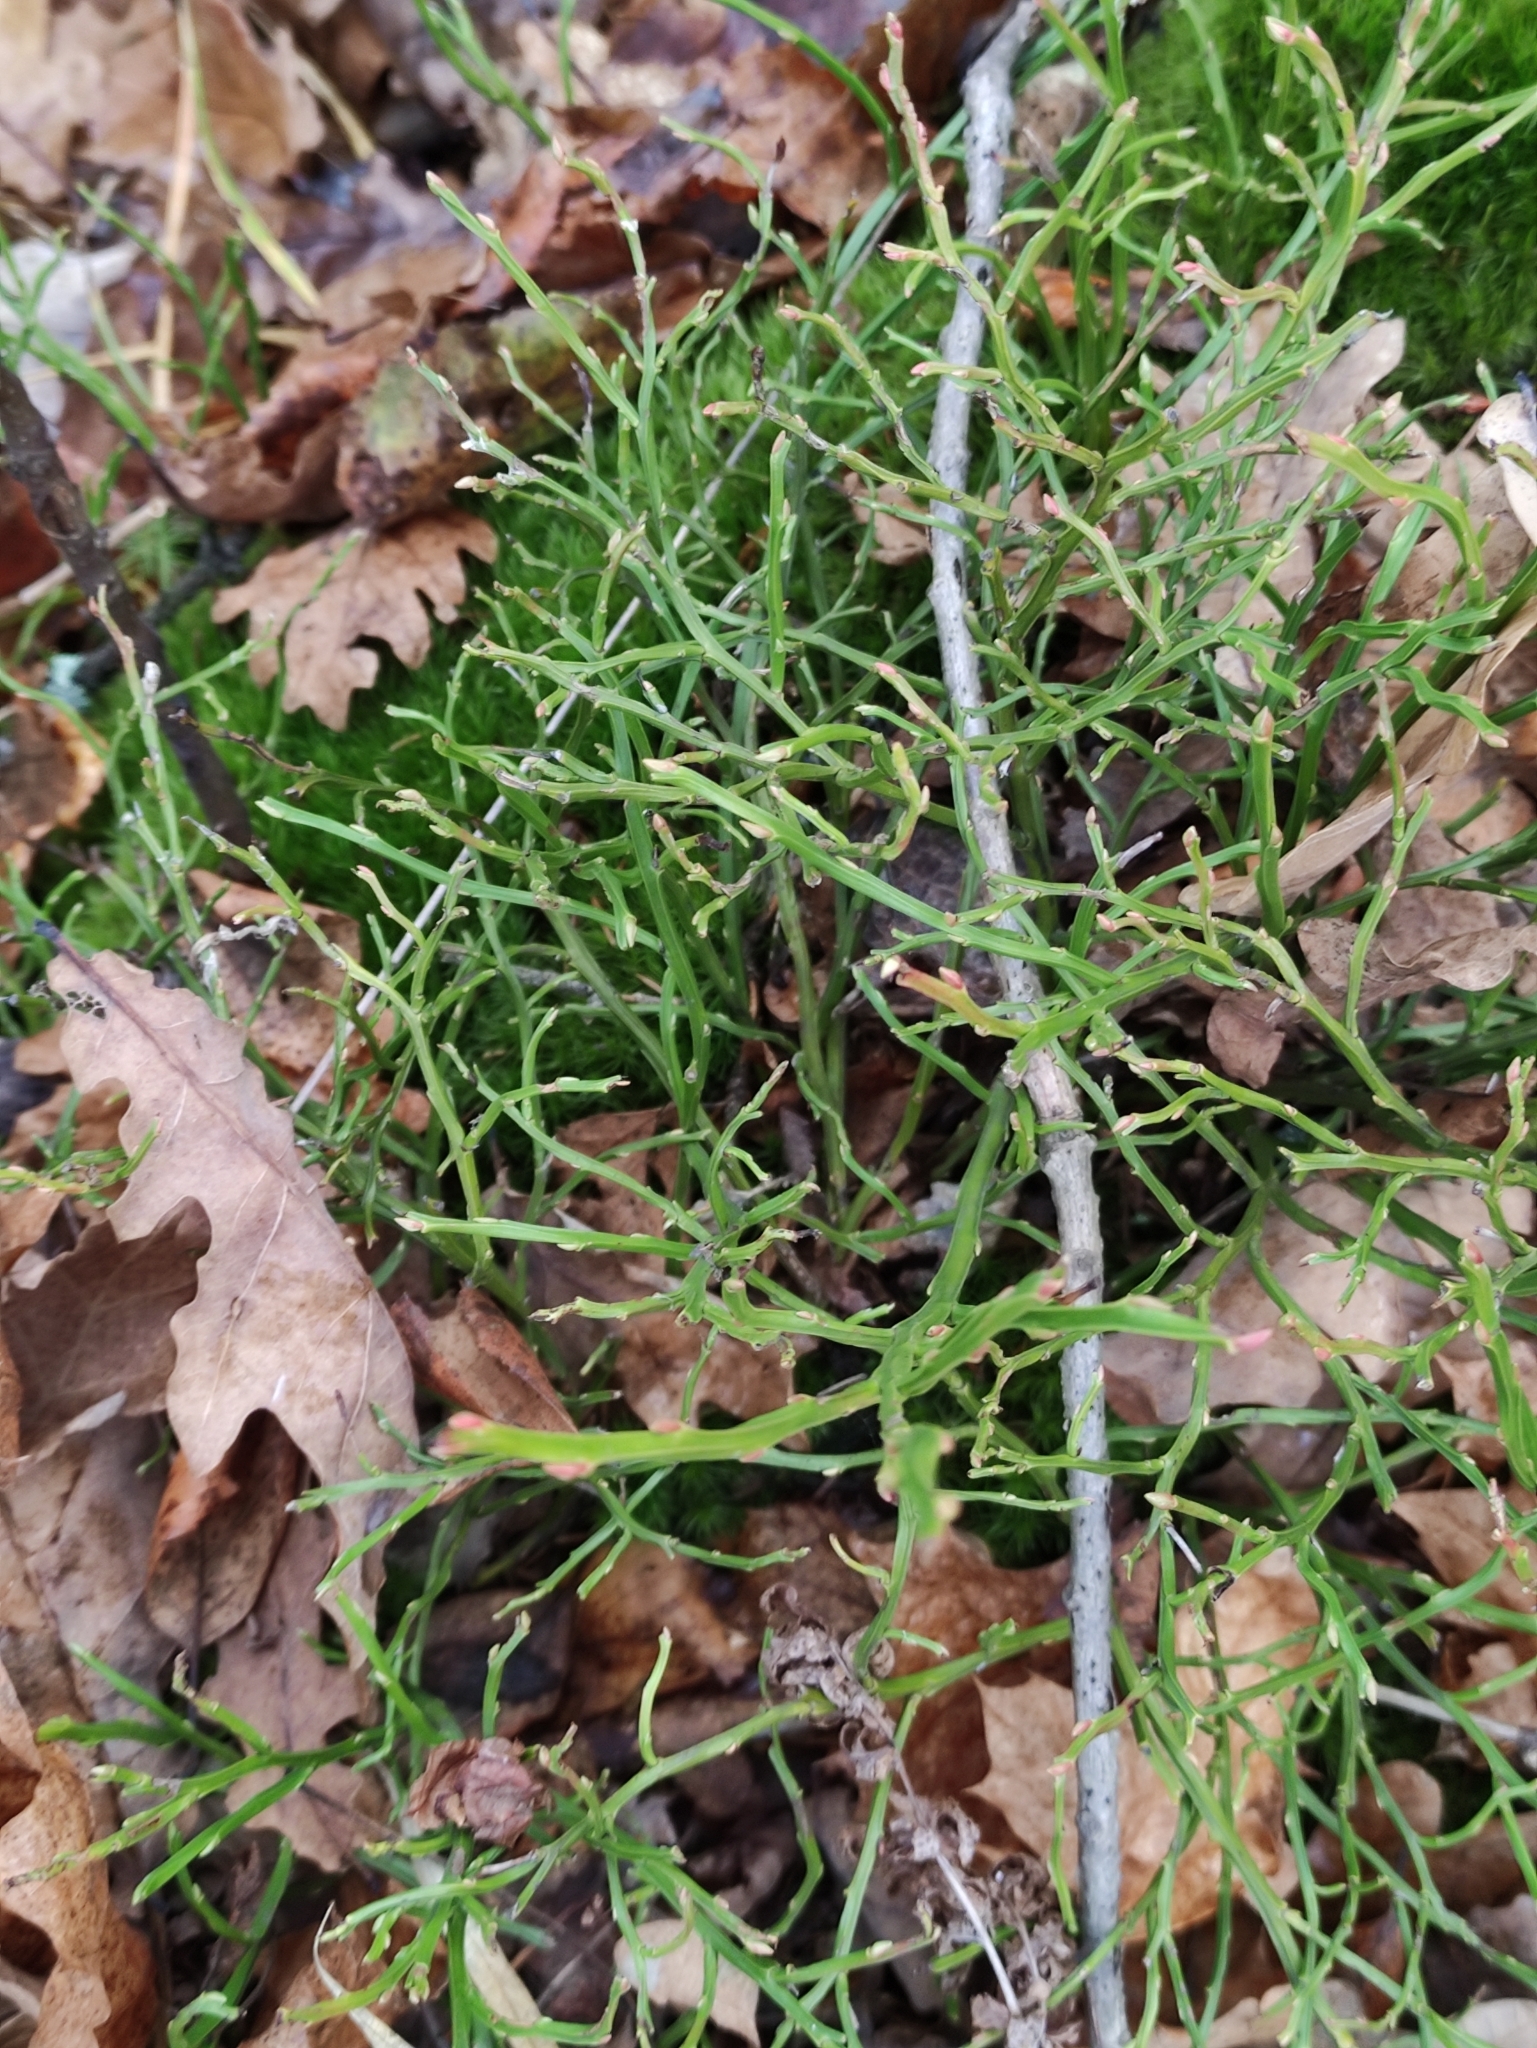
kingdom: Plantae
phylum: Tracheophyta
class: Magnoliopsida
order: Ericales
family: Ericaceae
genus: Vaccinium
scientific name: Vaccinium myrtillus
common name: Bilberry
